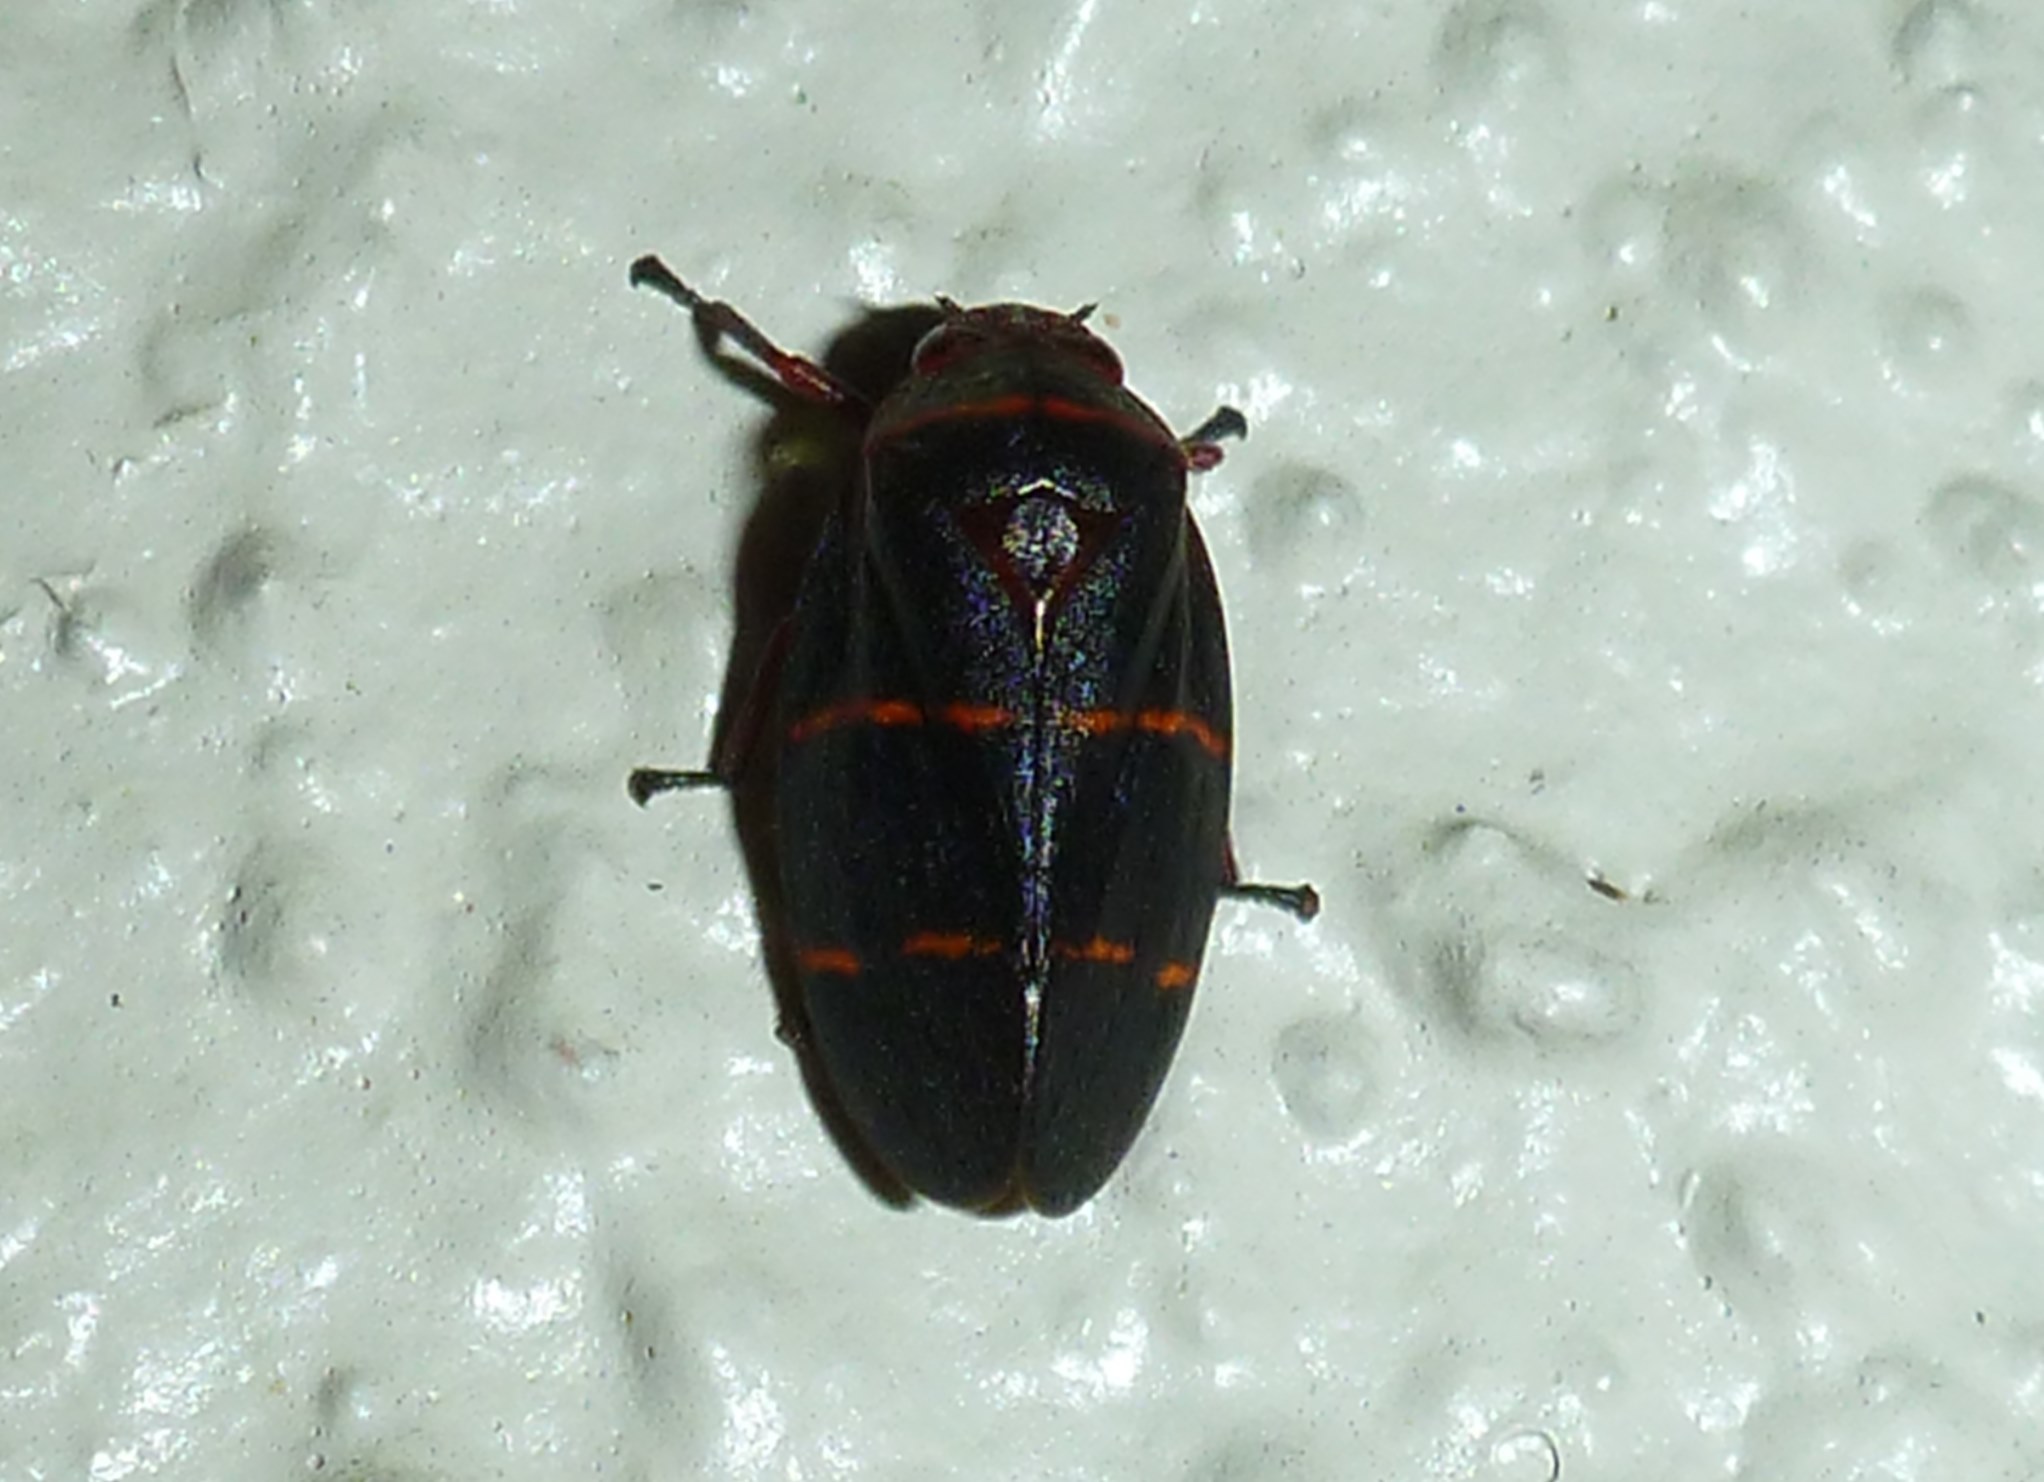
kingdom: Animalia
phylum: Arthropoda
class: Insecta
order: Hemiptera
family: Cercopidae
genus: Prosapia
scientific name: Prosapia bicincta
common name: Twolined spittlebug
